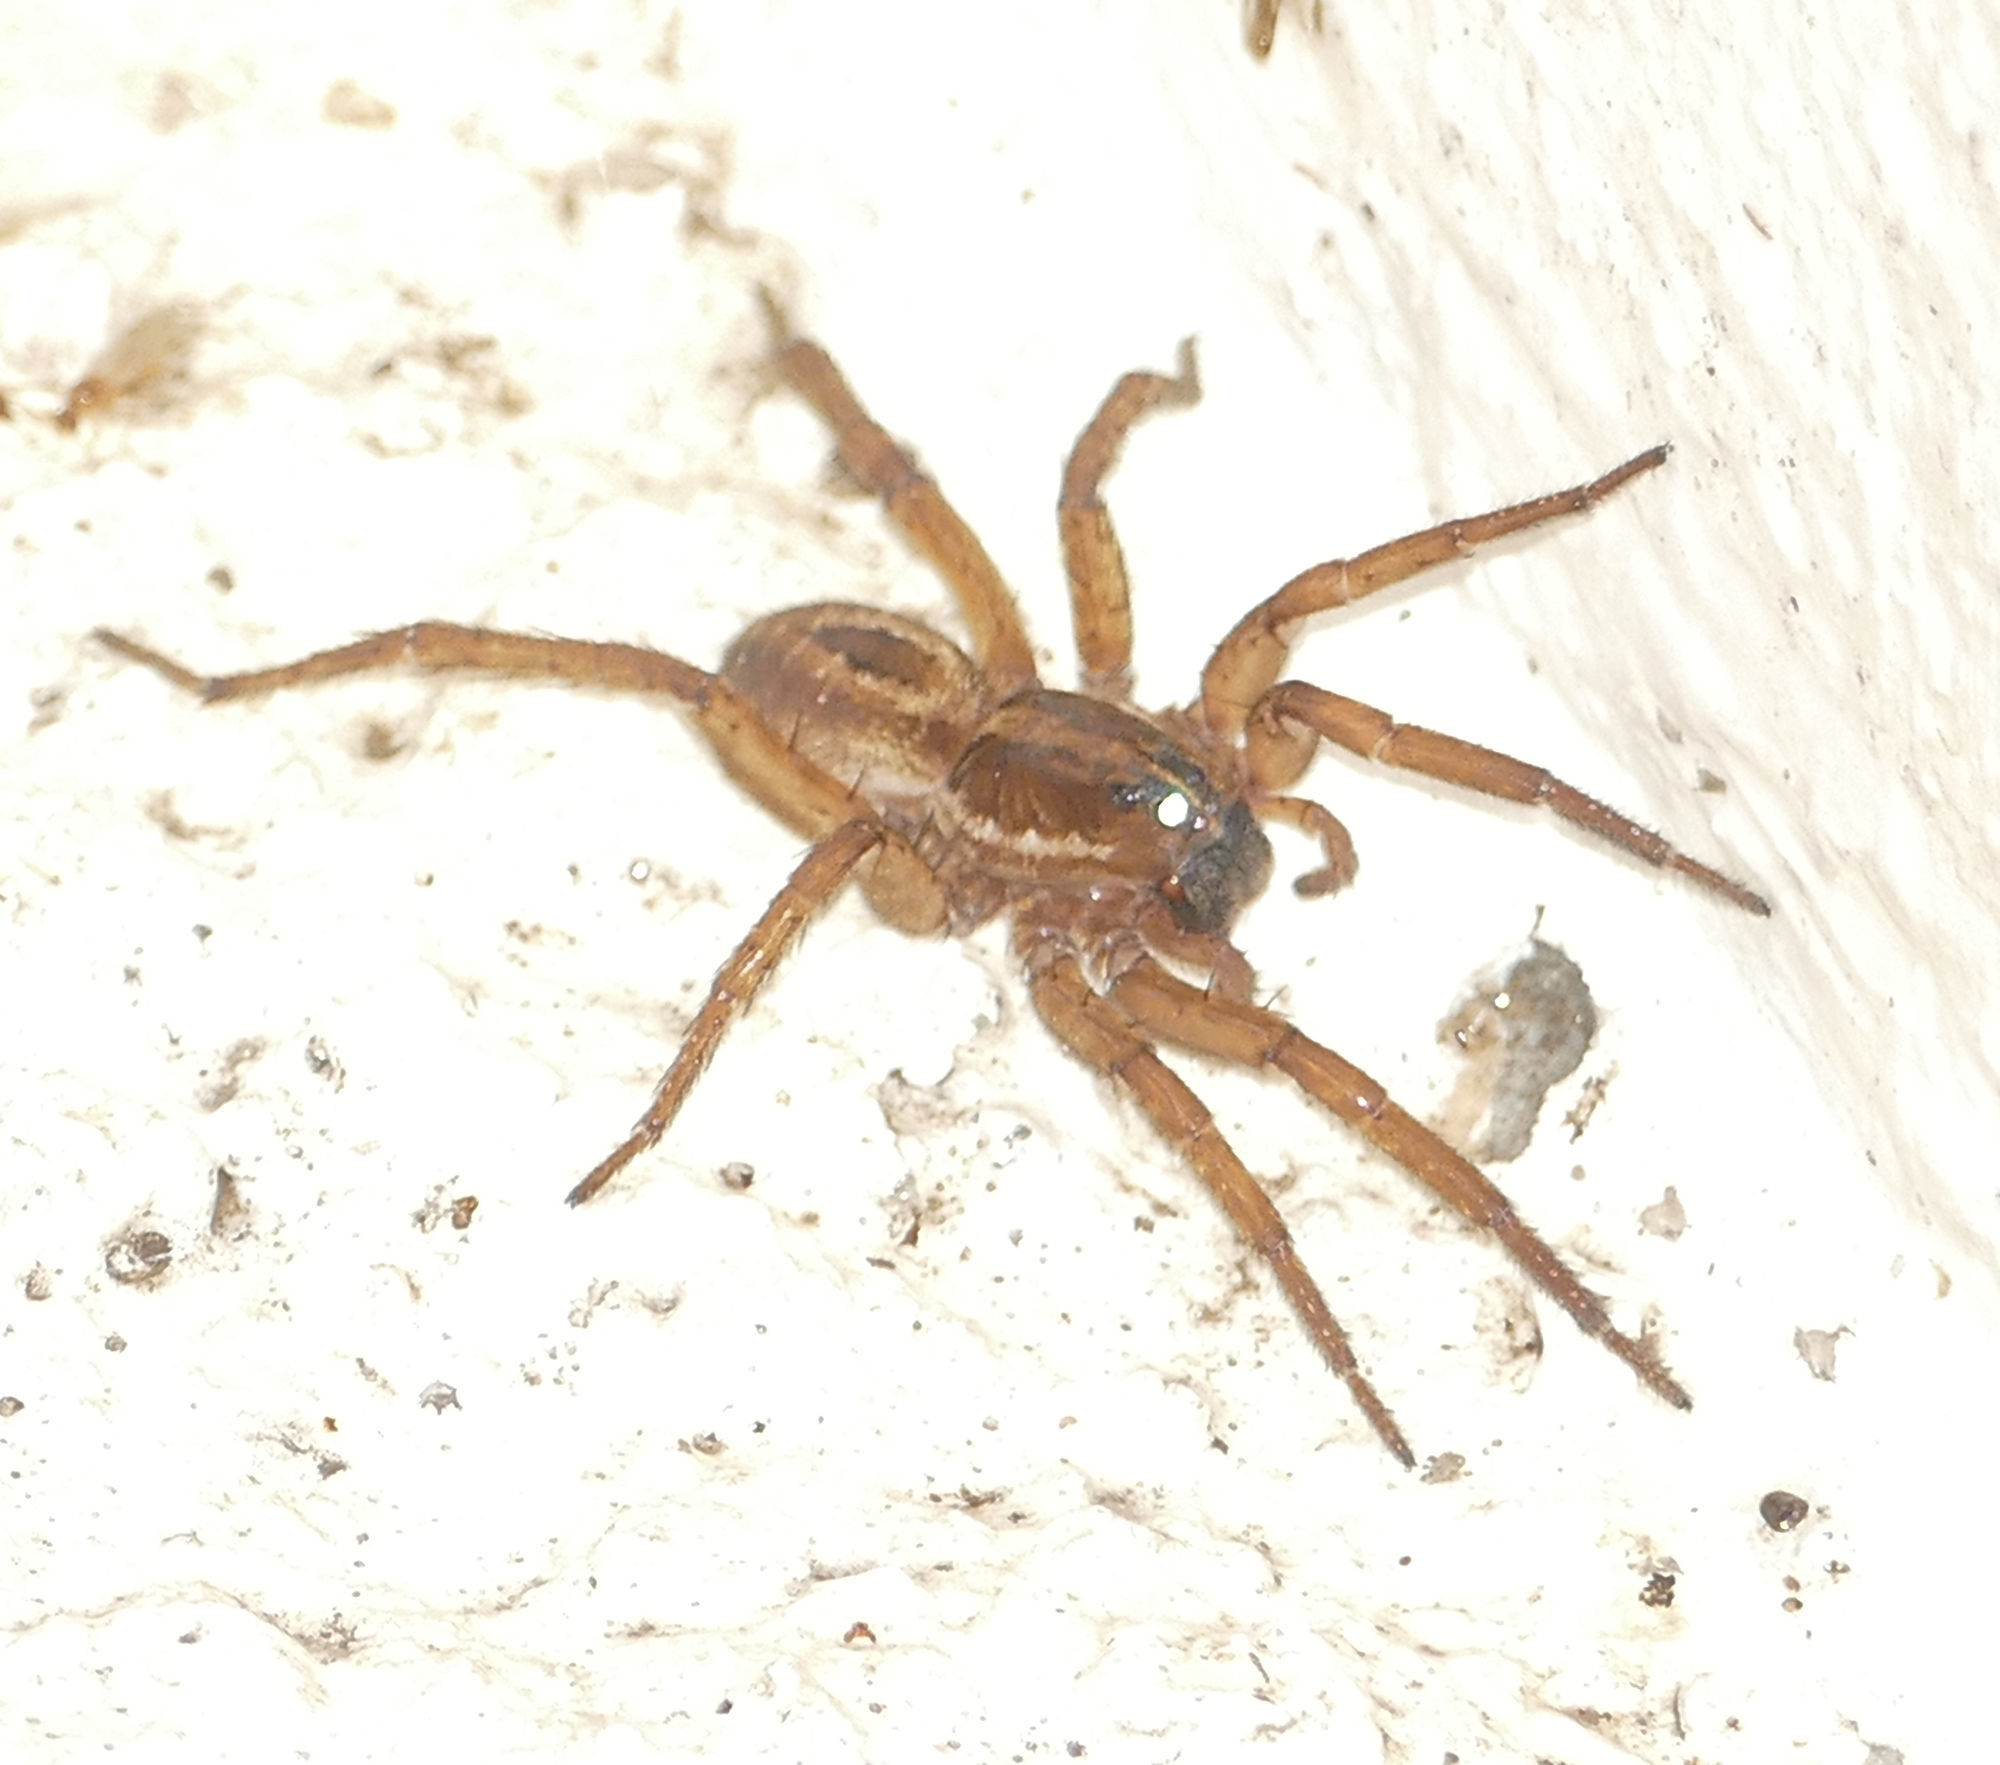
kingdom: Animalia
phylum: Arthropoda
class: Arachnida
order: Araneae
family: Lycosidae
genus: Tigrosa
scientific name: Tigrosa annexa
